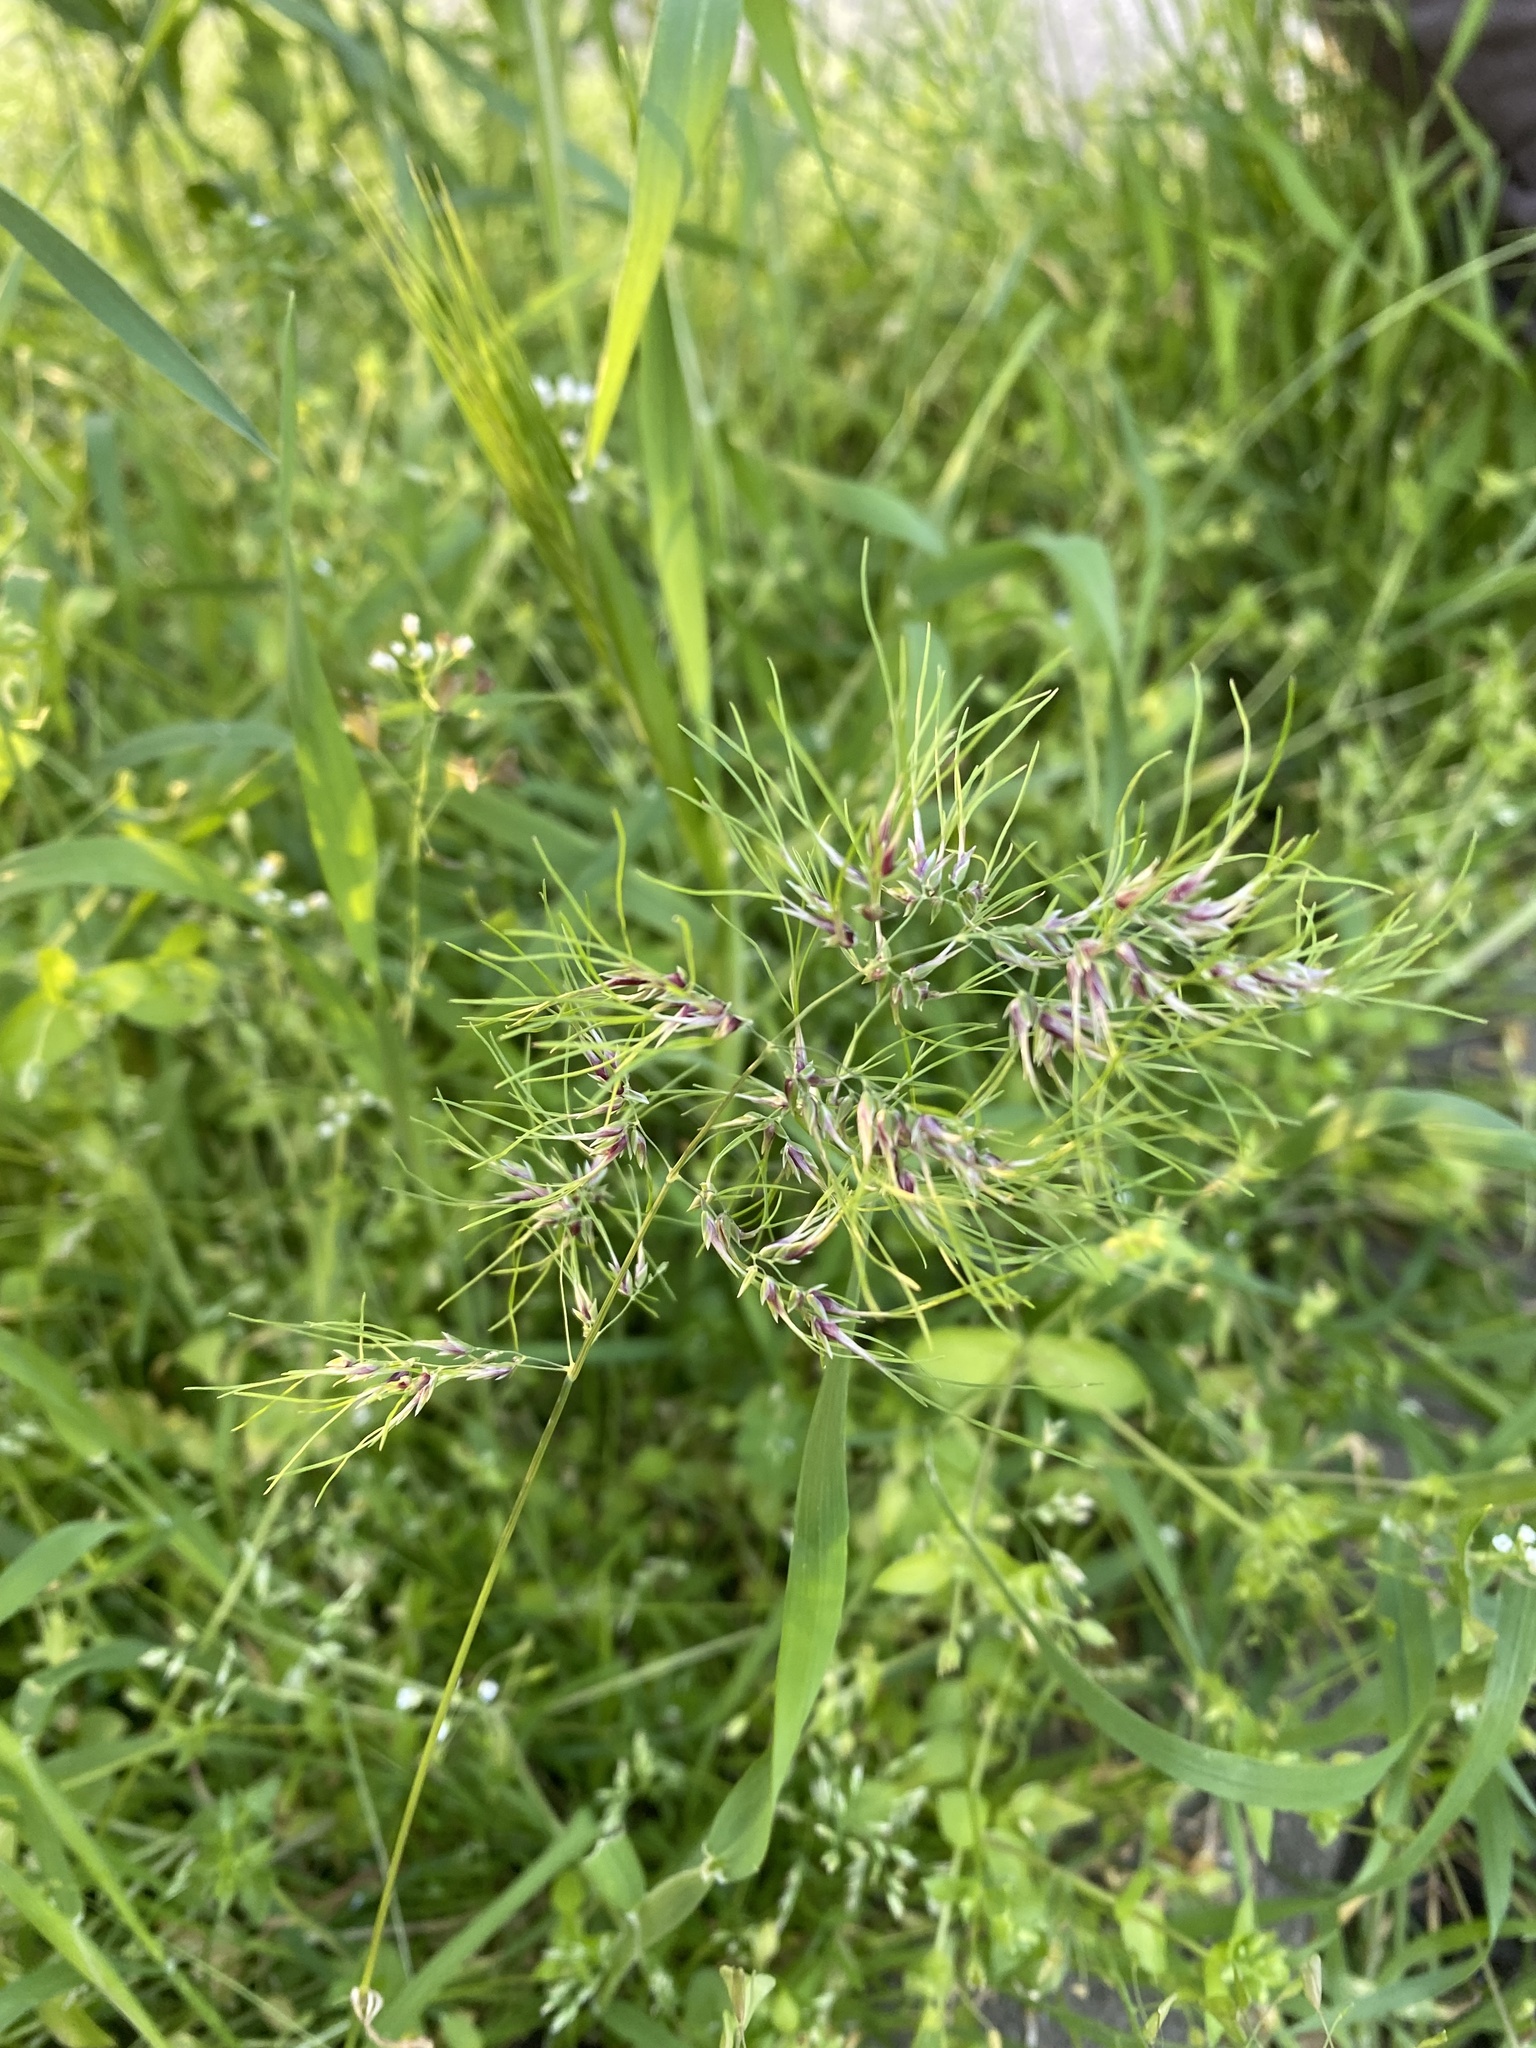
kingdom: Plantae
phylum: Tracheophyta
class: Liliopsida
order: Poales
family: Poaceae
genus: Poa
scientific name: Poa bulbosa
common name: Bulbous bluegrass
